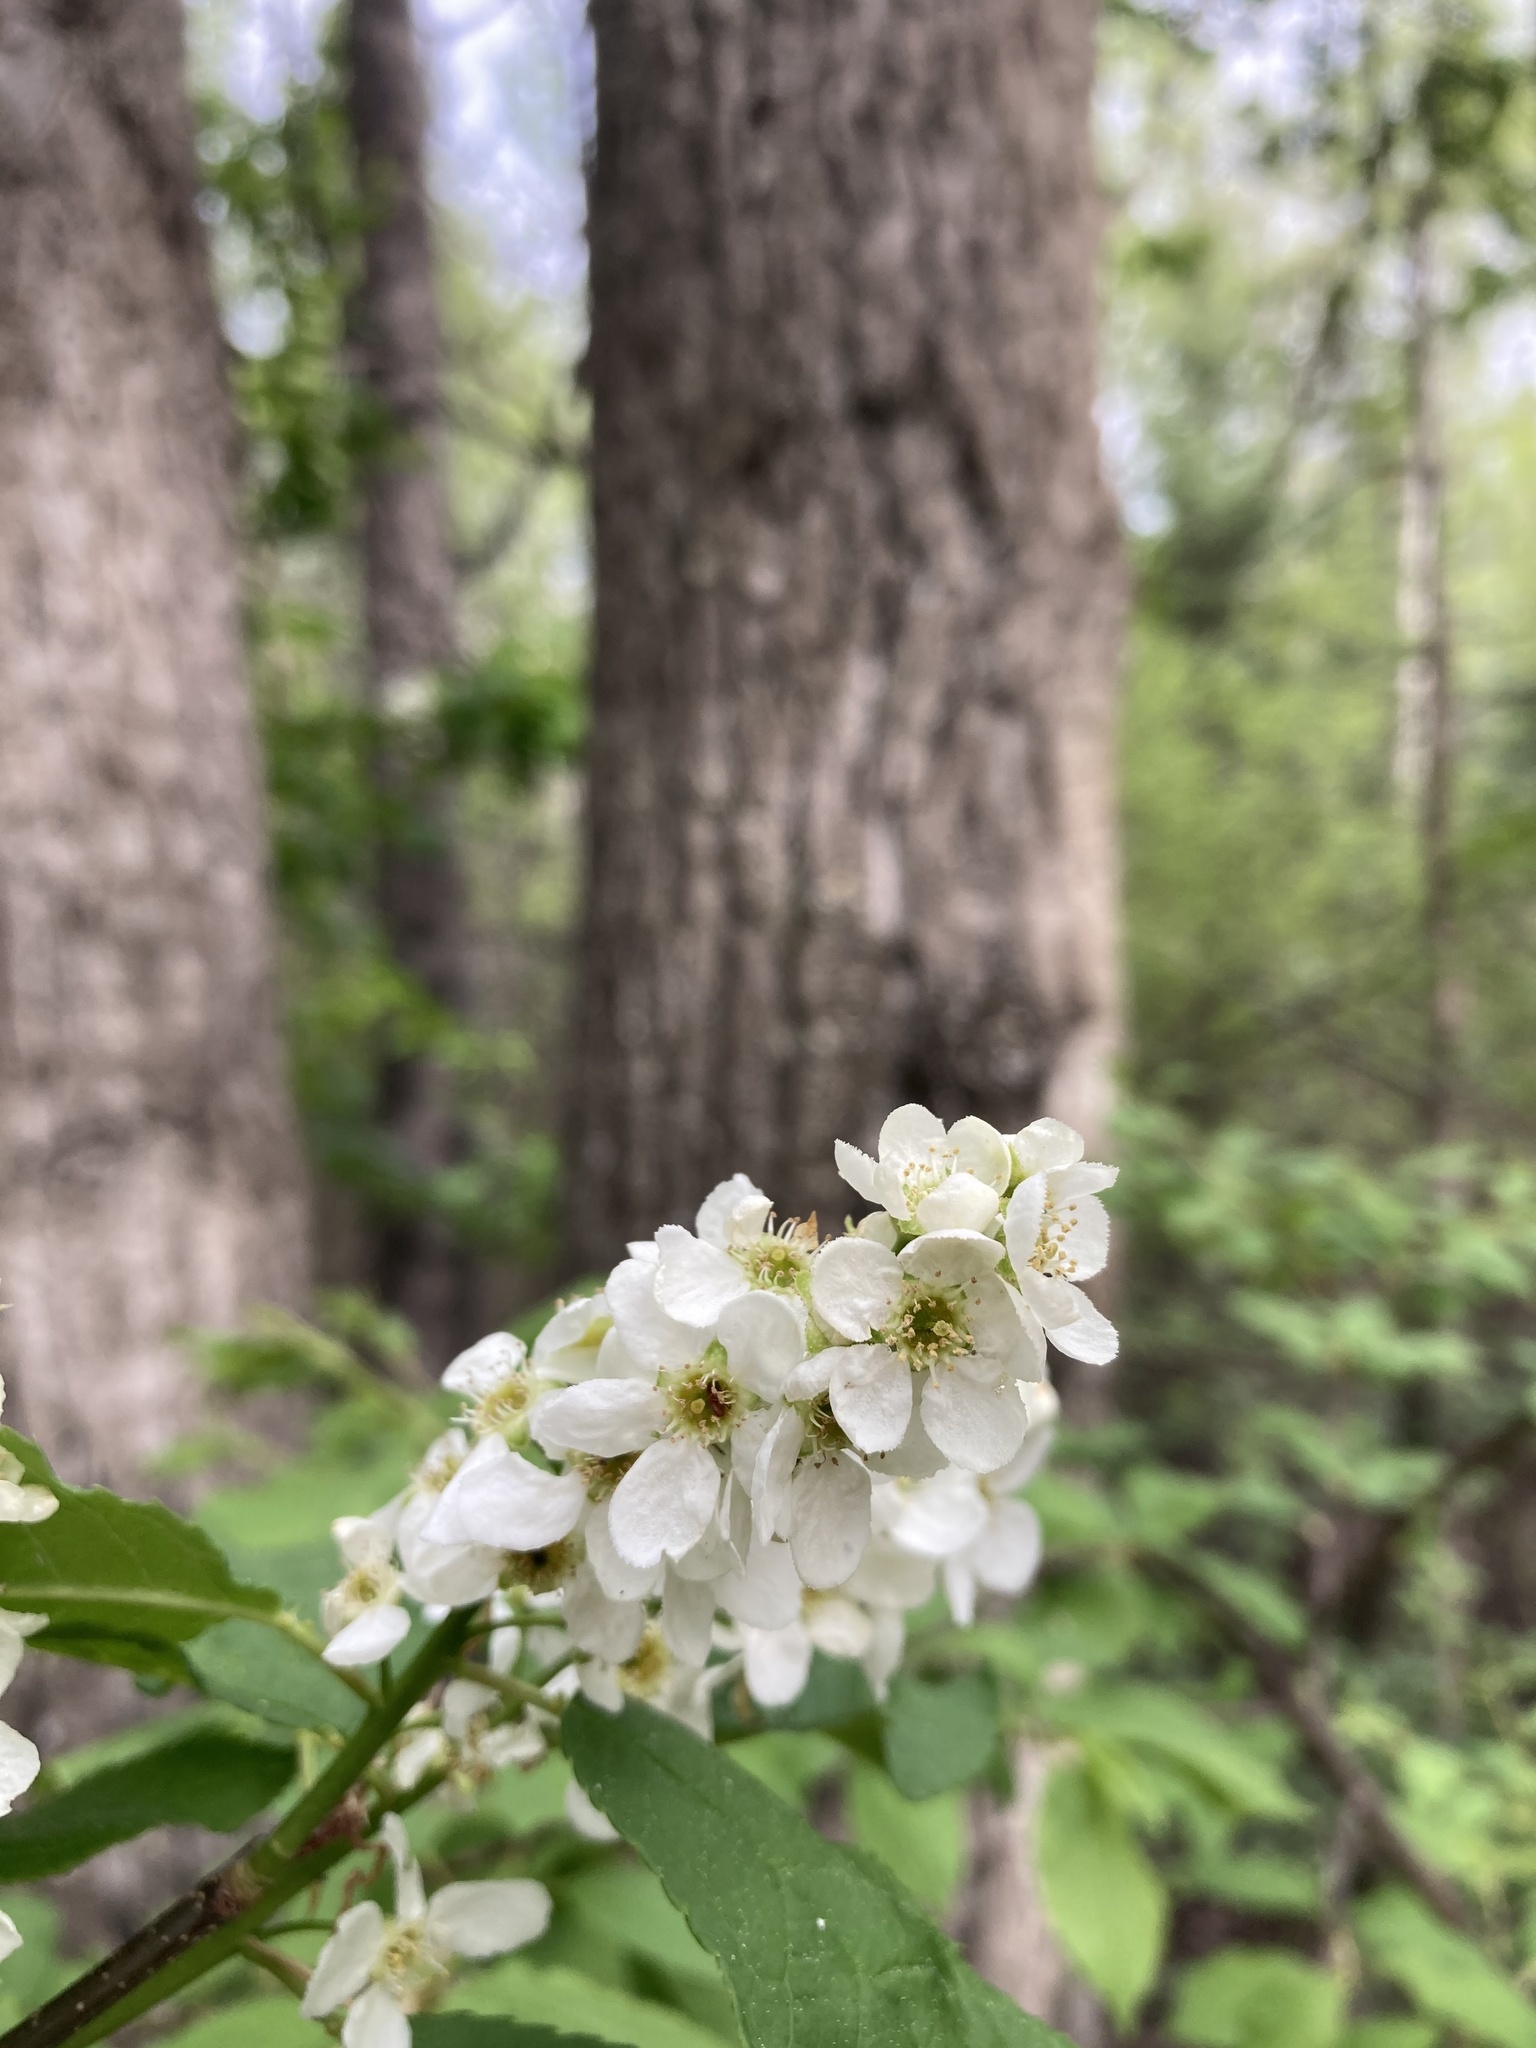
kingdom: Plantae
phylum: Tracheophyta
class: Magnoliopsida
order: Rosales
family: Rosaceae
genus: Prunus
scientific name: Prunus virginiana
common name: Chokecherry
